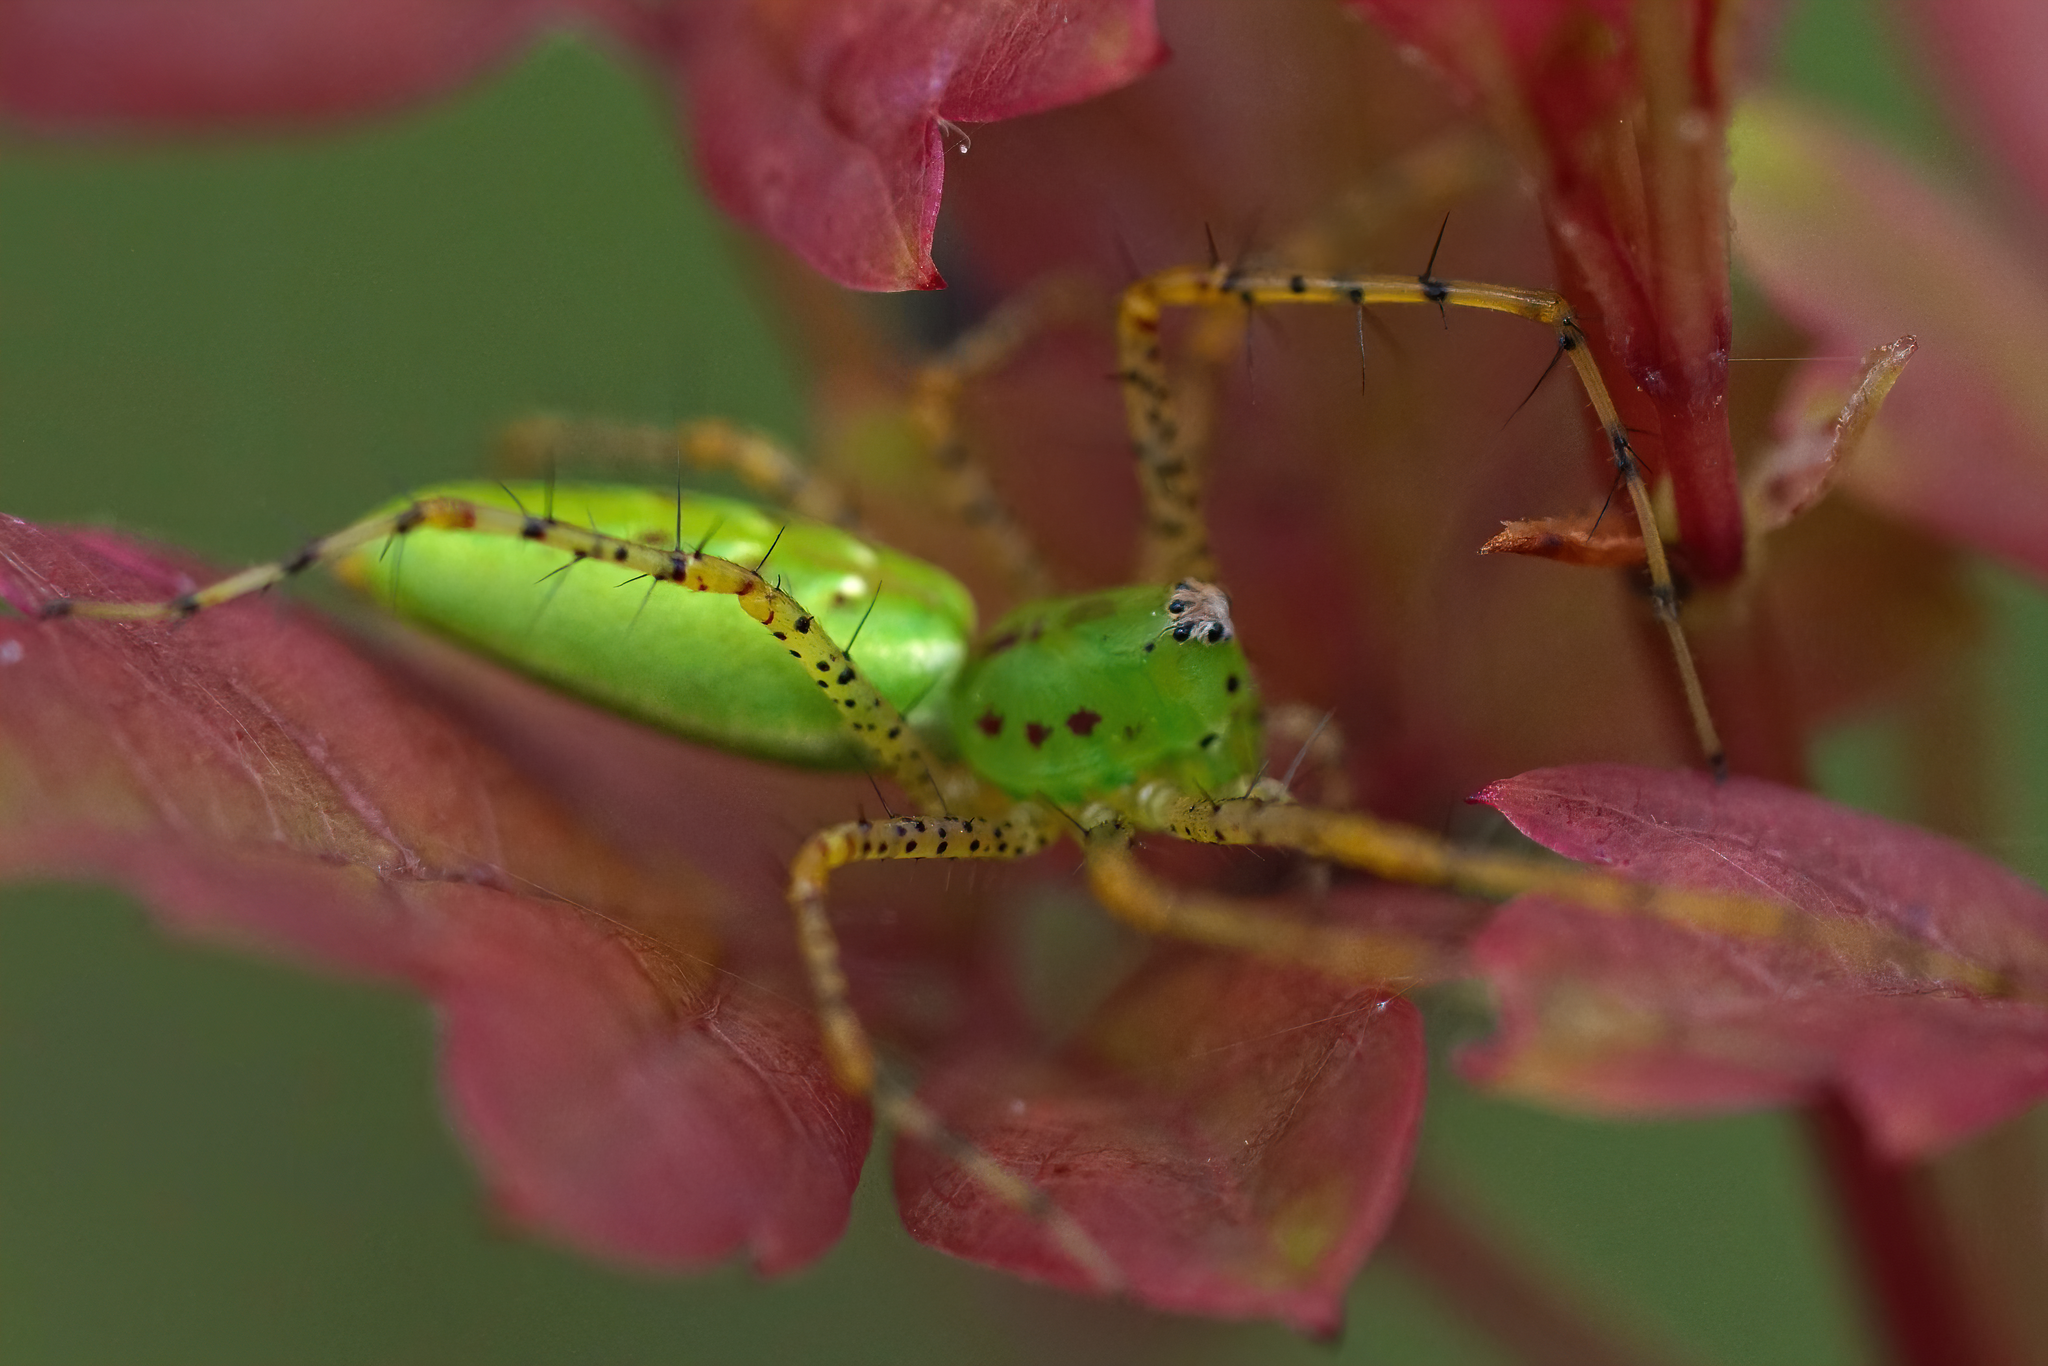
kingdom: Animalia
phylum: Arthropoda
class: Arachnida
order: Araneae
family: Oxyopidae
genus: Peucetia
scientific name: Peucetia viridans
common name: Lynx spiders
